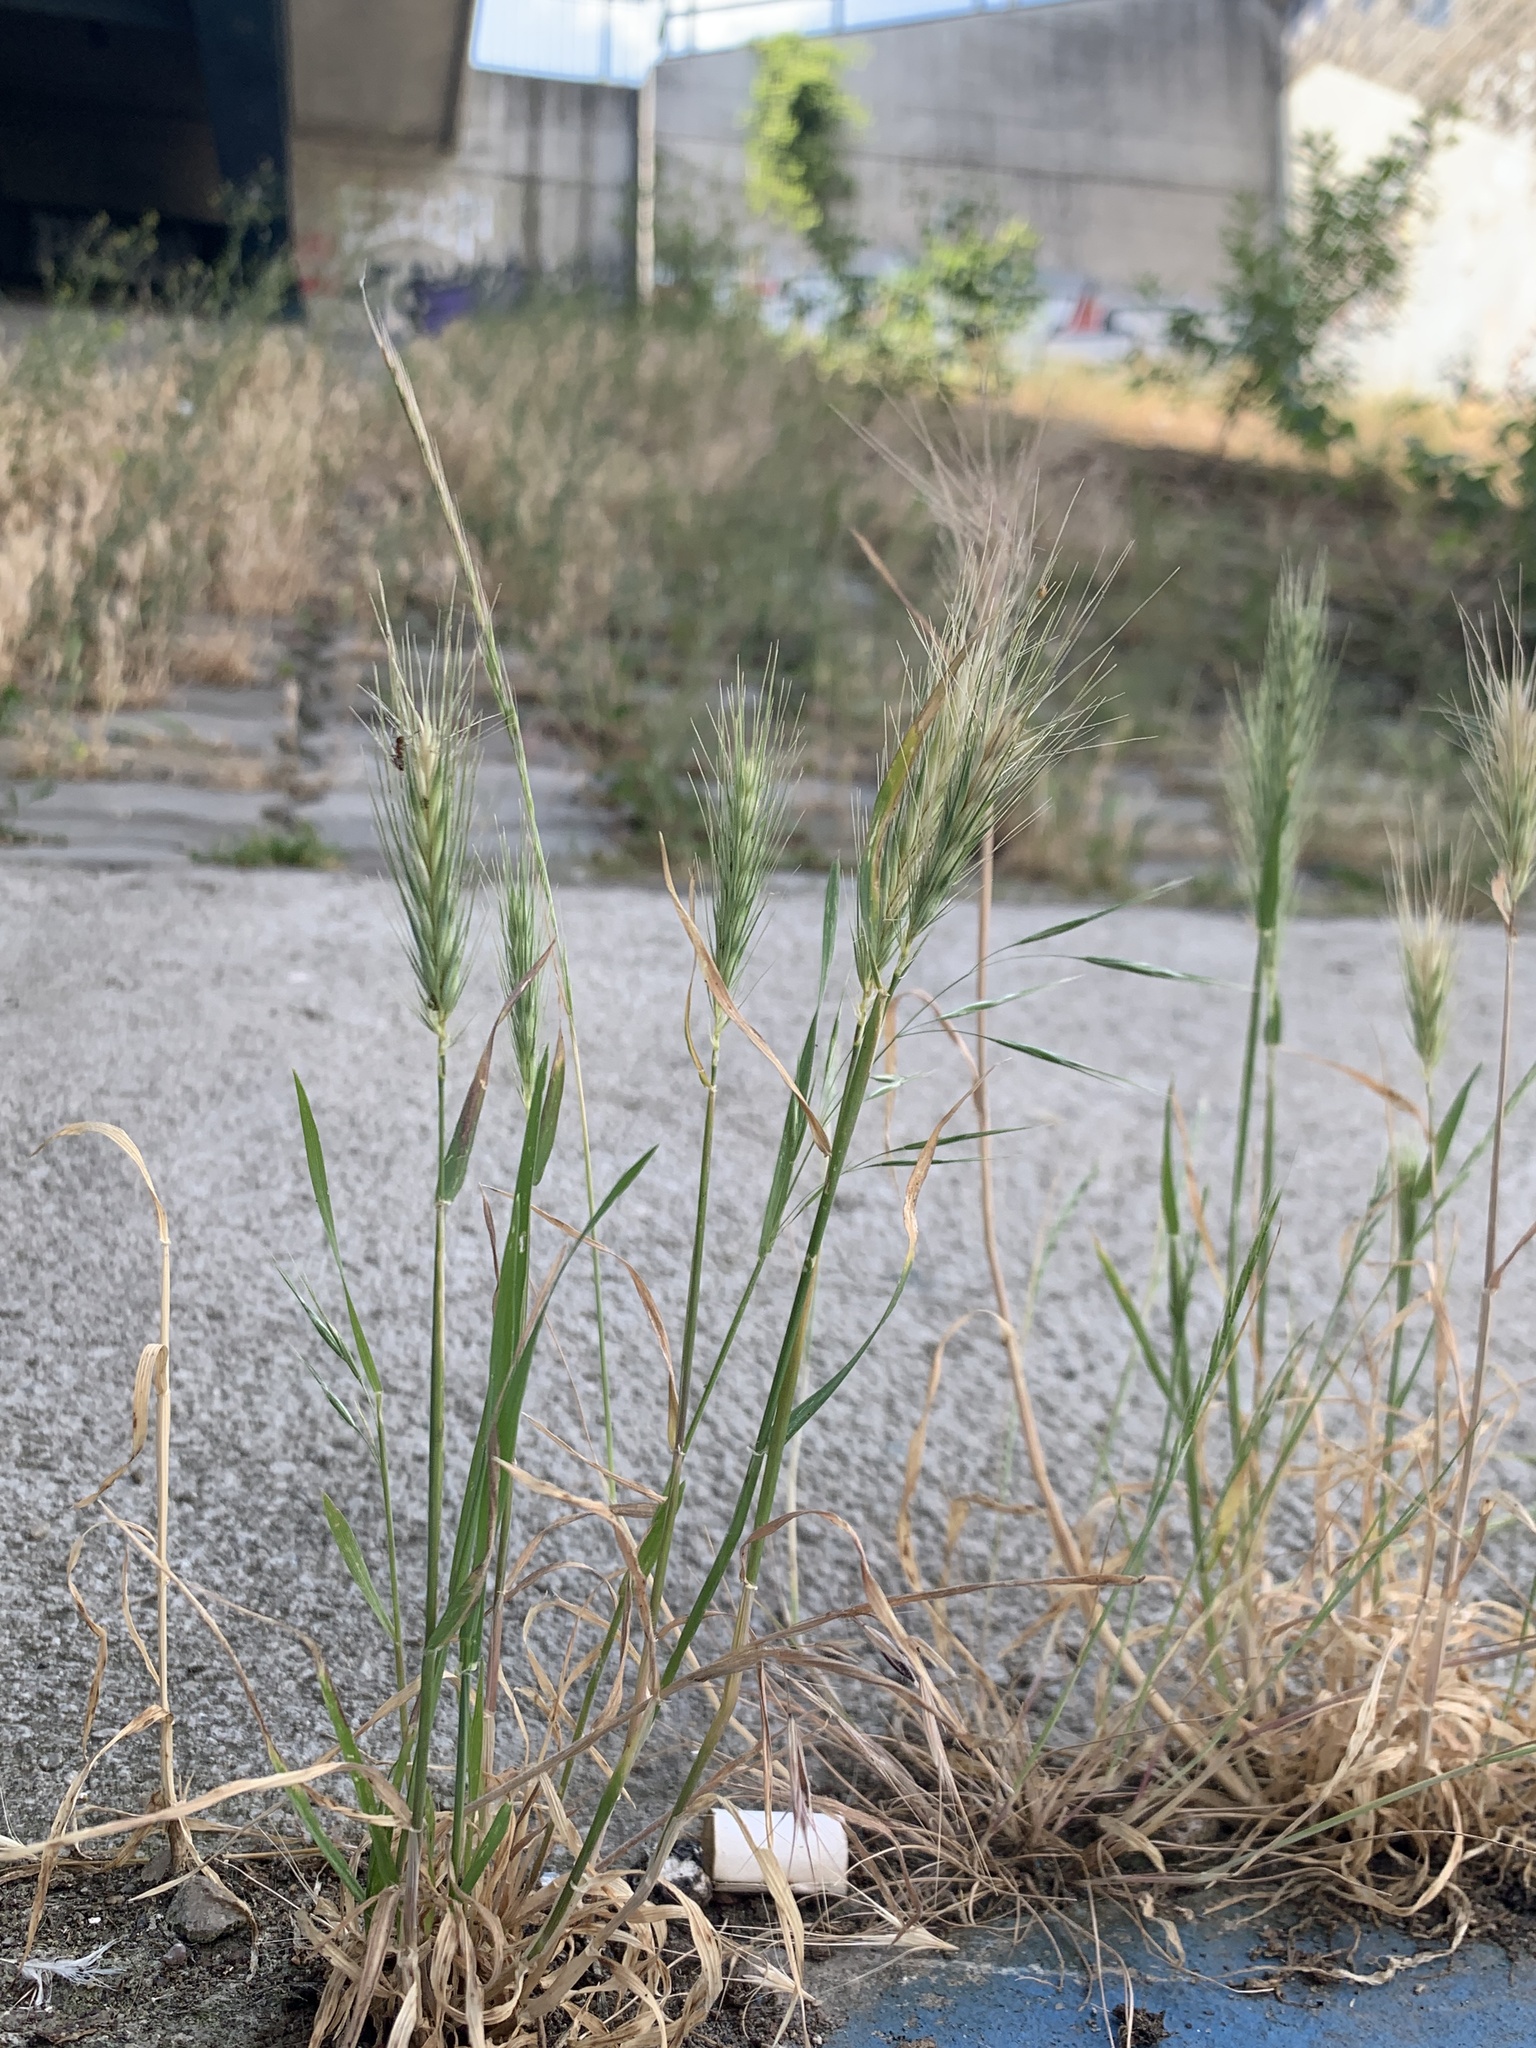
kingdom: Plantae
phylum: Tracheophyta
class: Liliopsida
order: Poales
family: Poaceae
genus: Hordeum
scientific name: Hordeum murinum
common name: Wall barley
